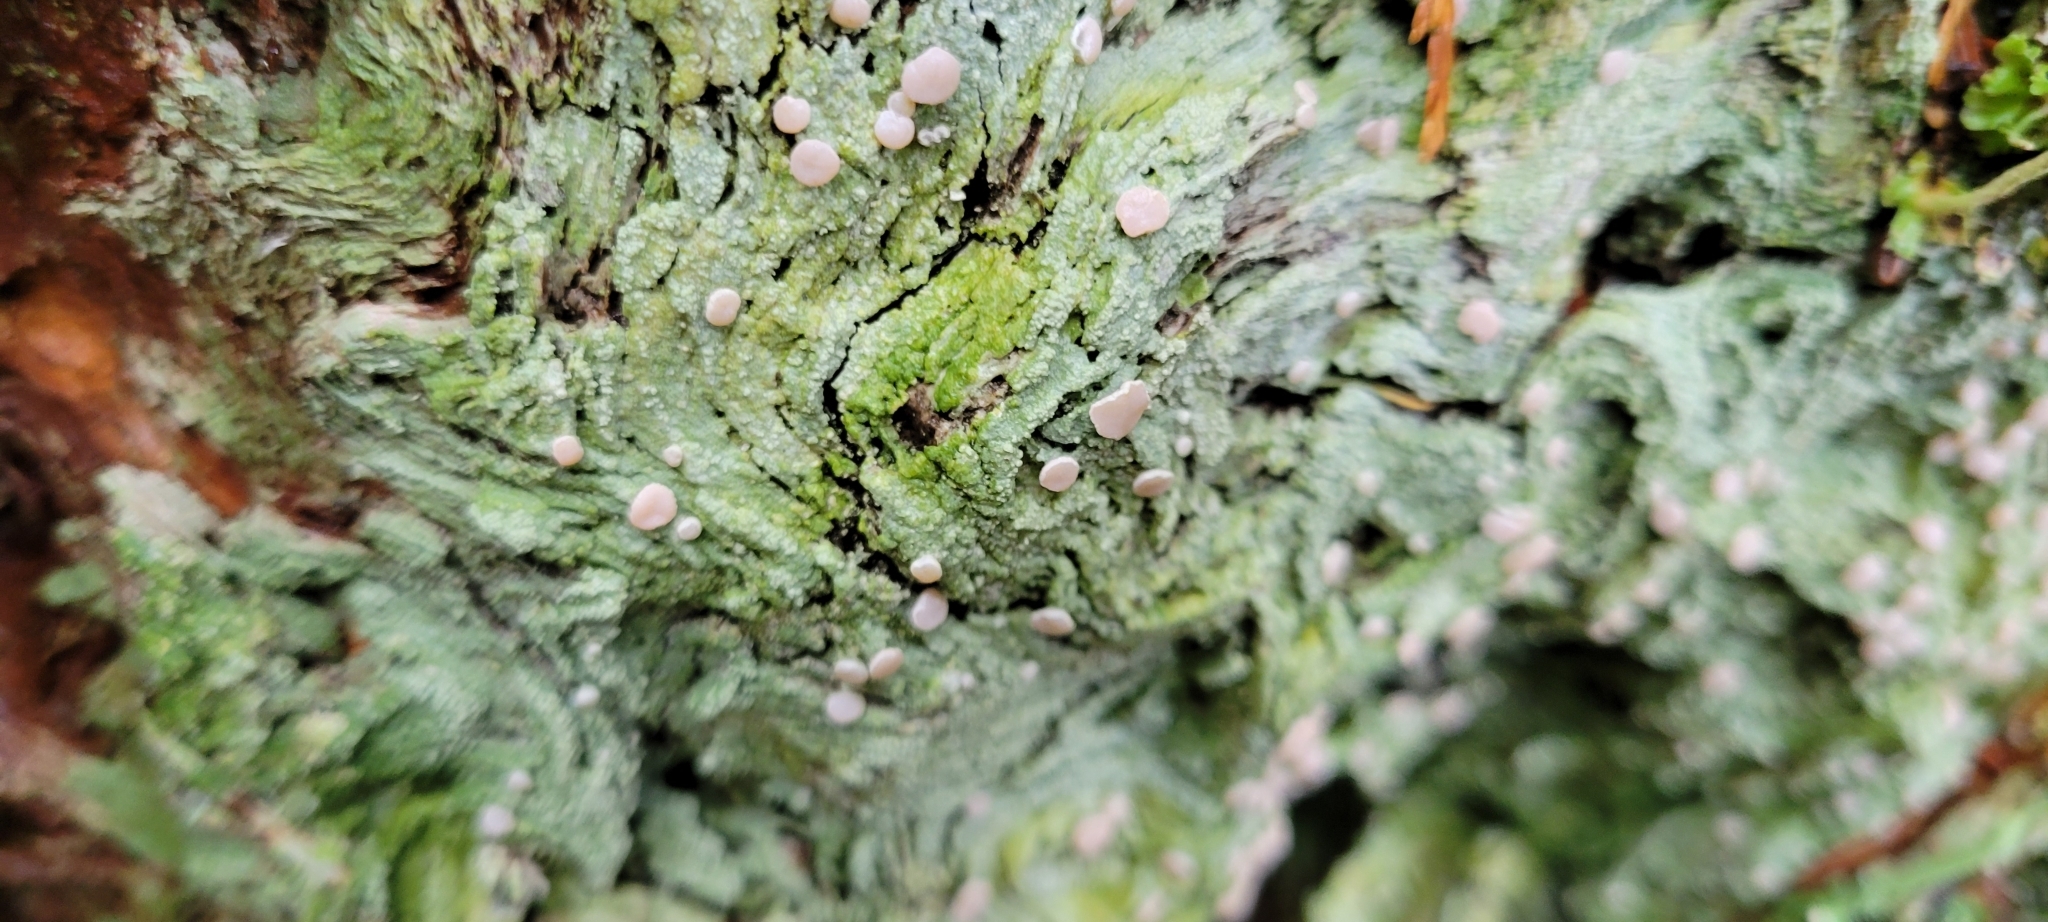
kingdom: Fungi
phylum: Ascomycota
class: Lecanoromycetes
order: Pertusariales
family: Icmadophilaceae
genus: Icmadophila
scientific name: Icmadophila ericetorum
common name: Candy lichen
